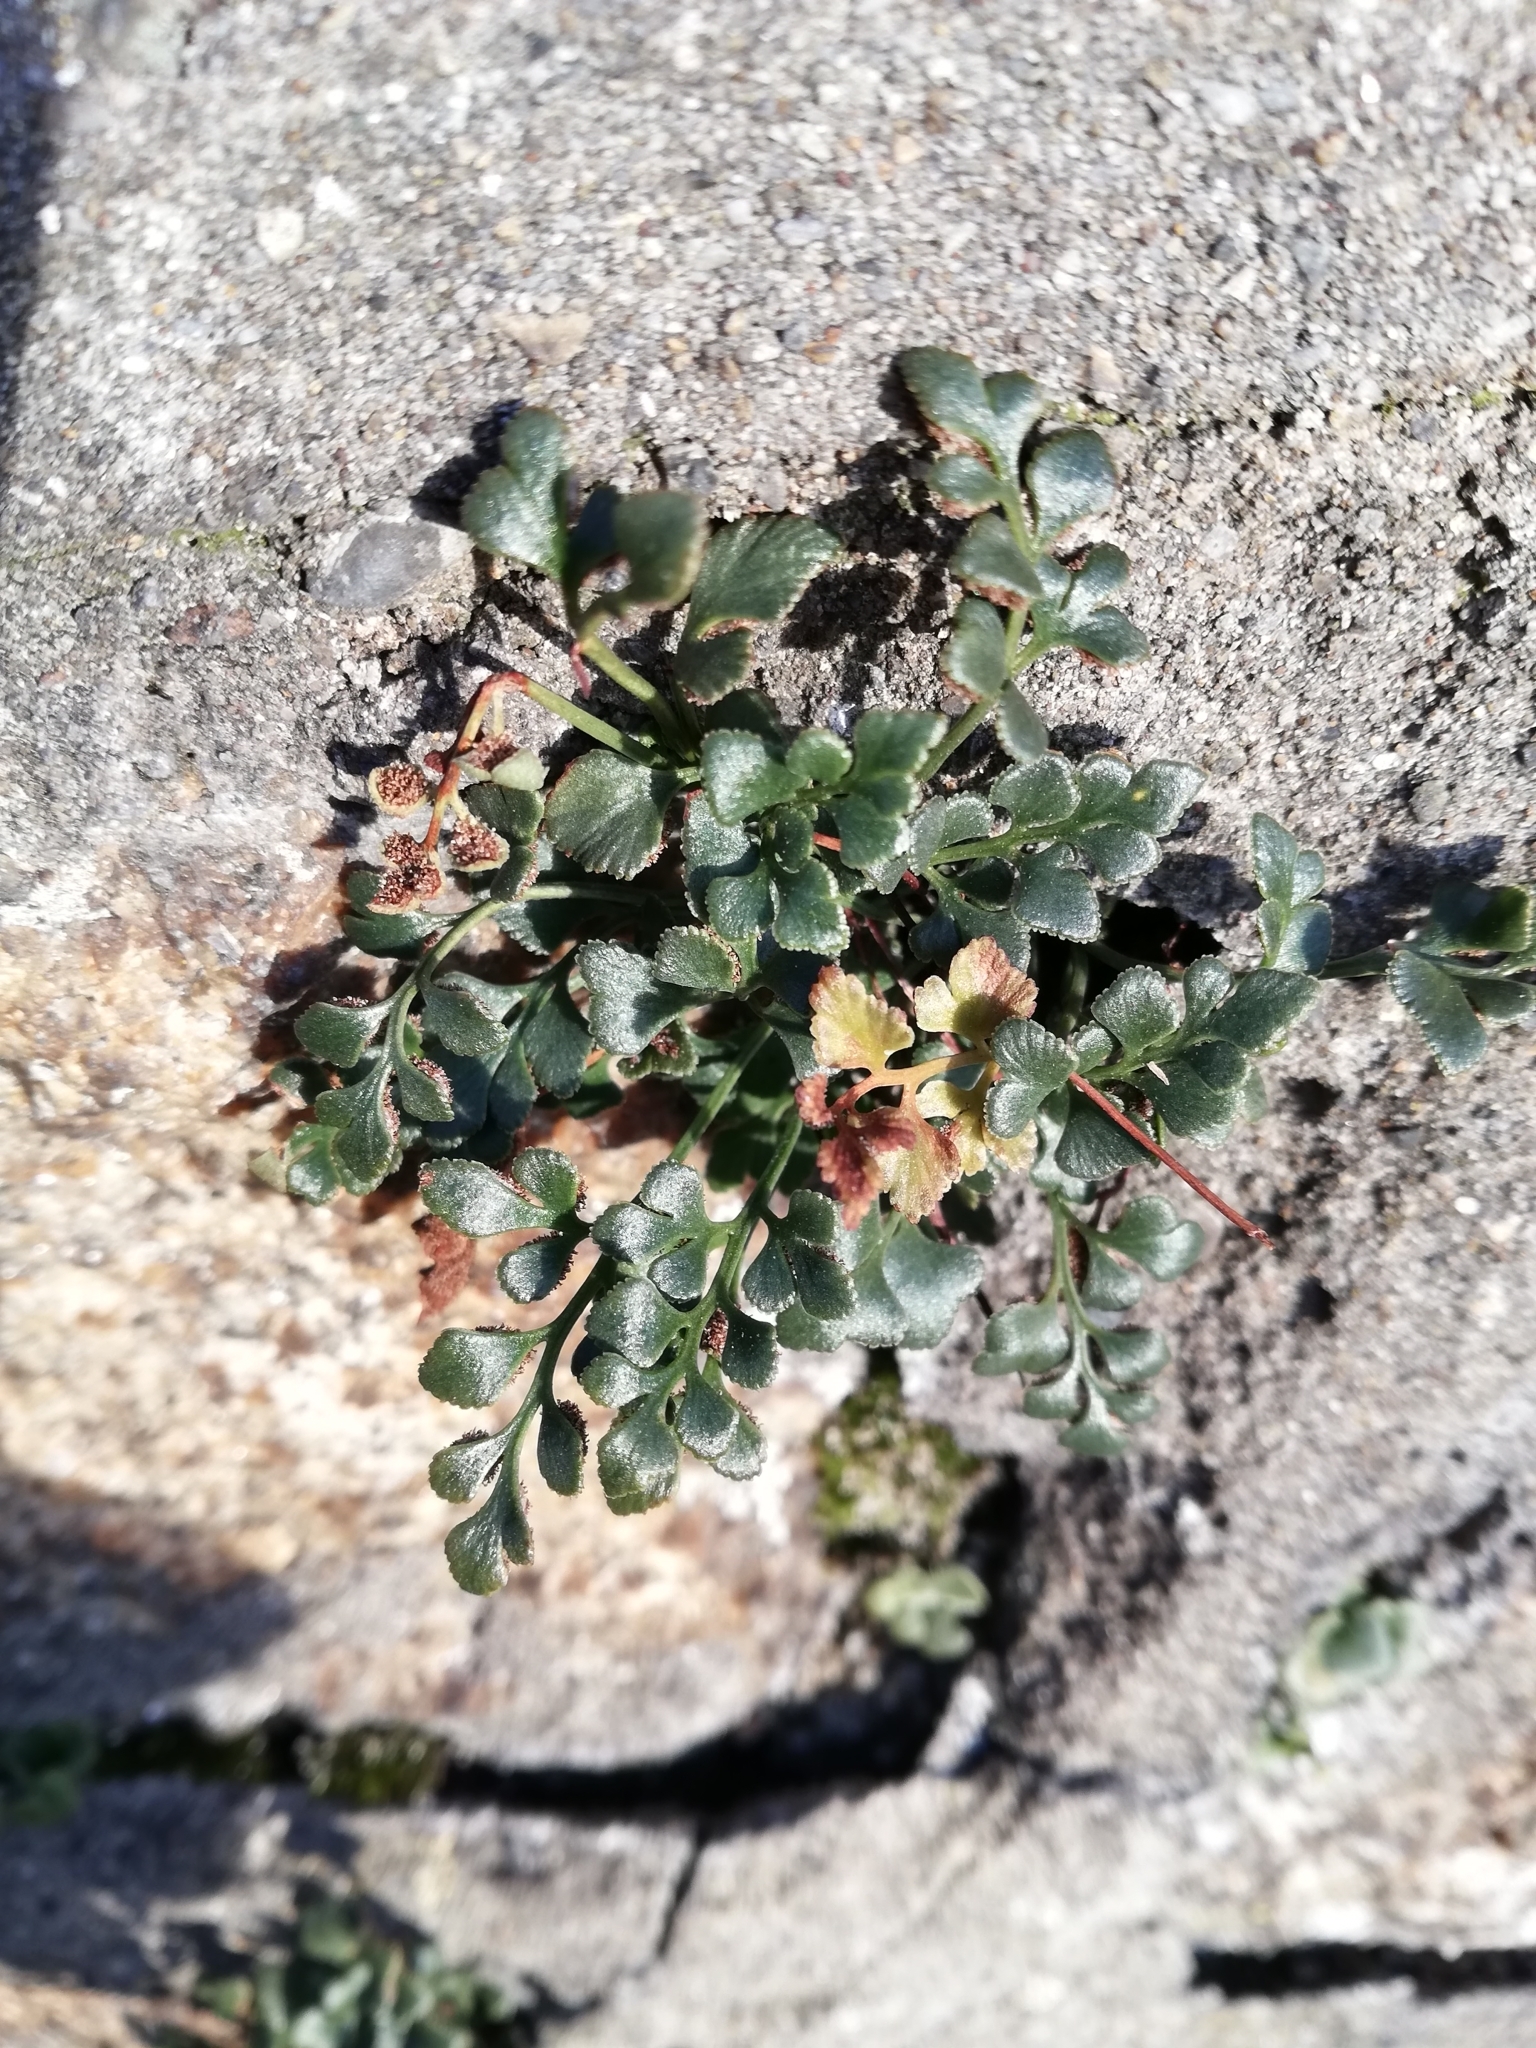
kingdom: Plantae
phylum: Tracheophyta
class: Polypodiopsida
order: Polypodiales
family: Aspleniaceae
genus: Asplenium
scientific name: Asplenium ruta-muraria
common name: Wall-rue
